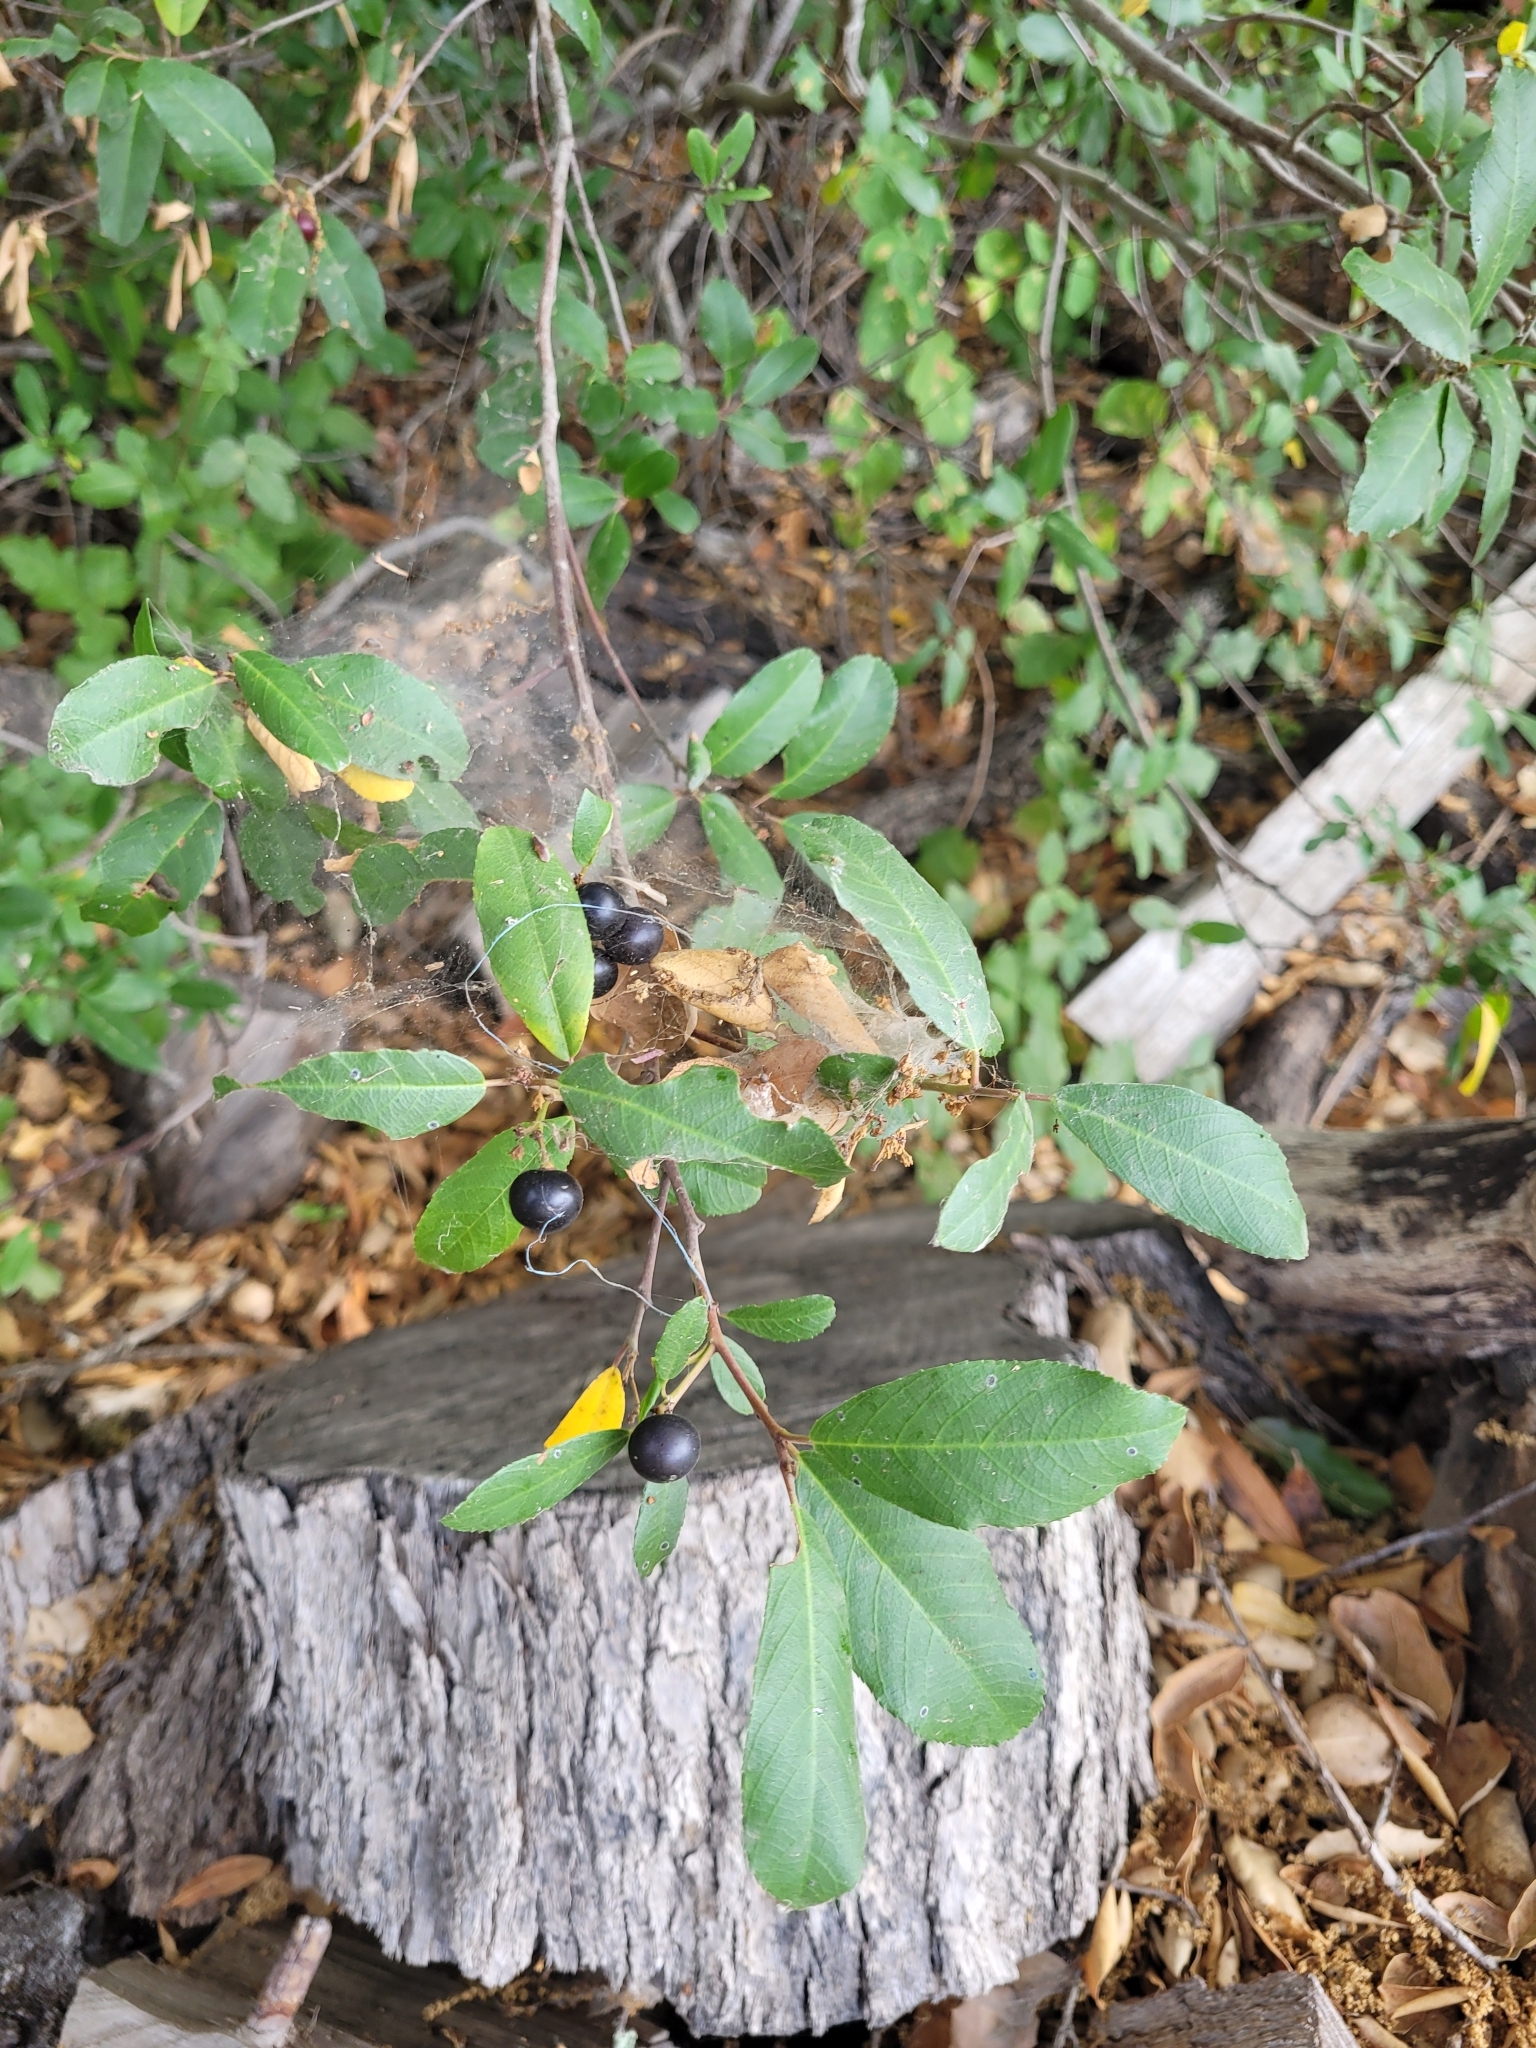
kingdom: Plantae
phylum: Tracheophyta
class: Magnoliopsida
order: Rosales
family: Rhamnaceae
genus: Frangula
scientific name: Frangula californica
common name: California buckthorn
